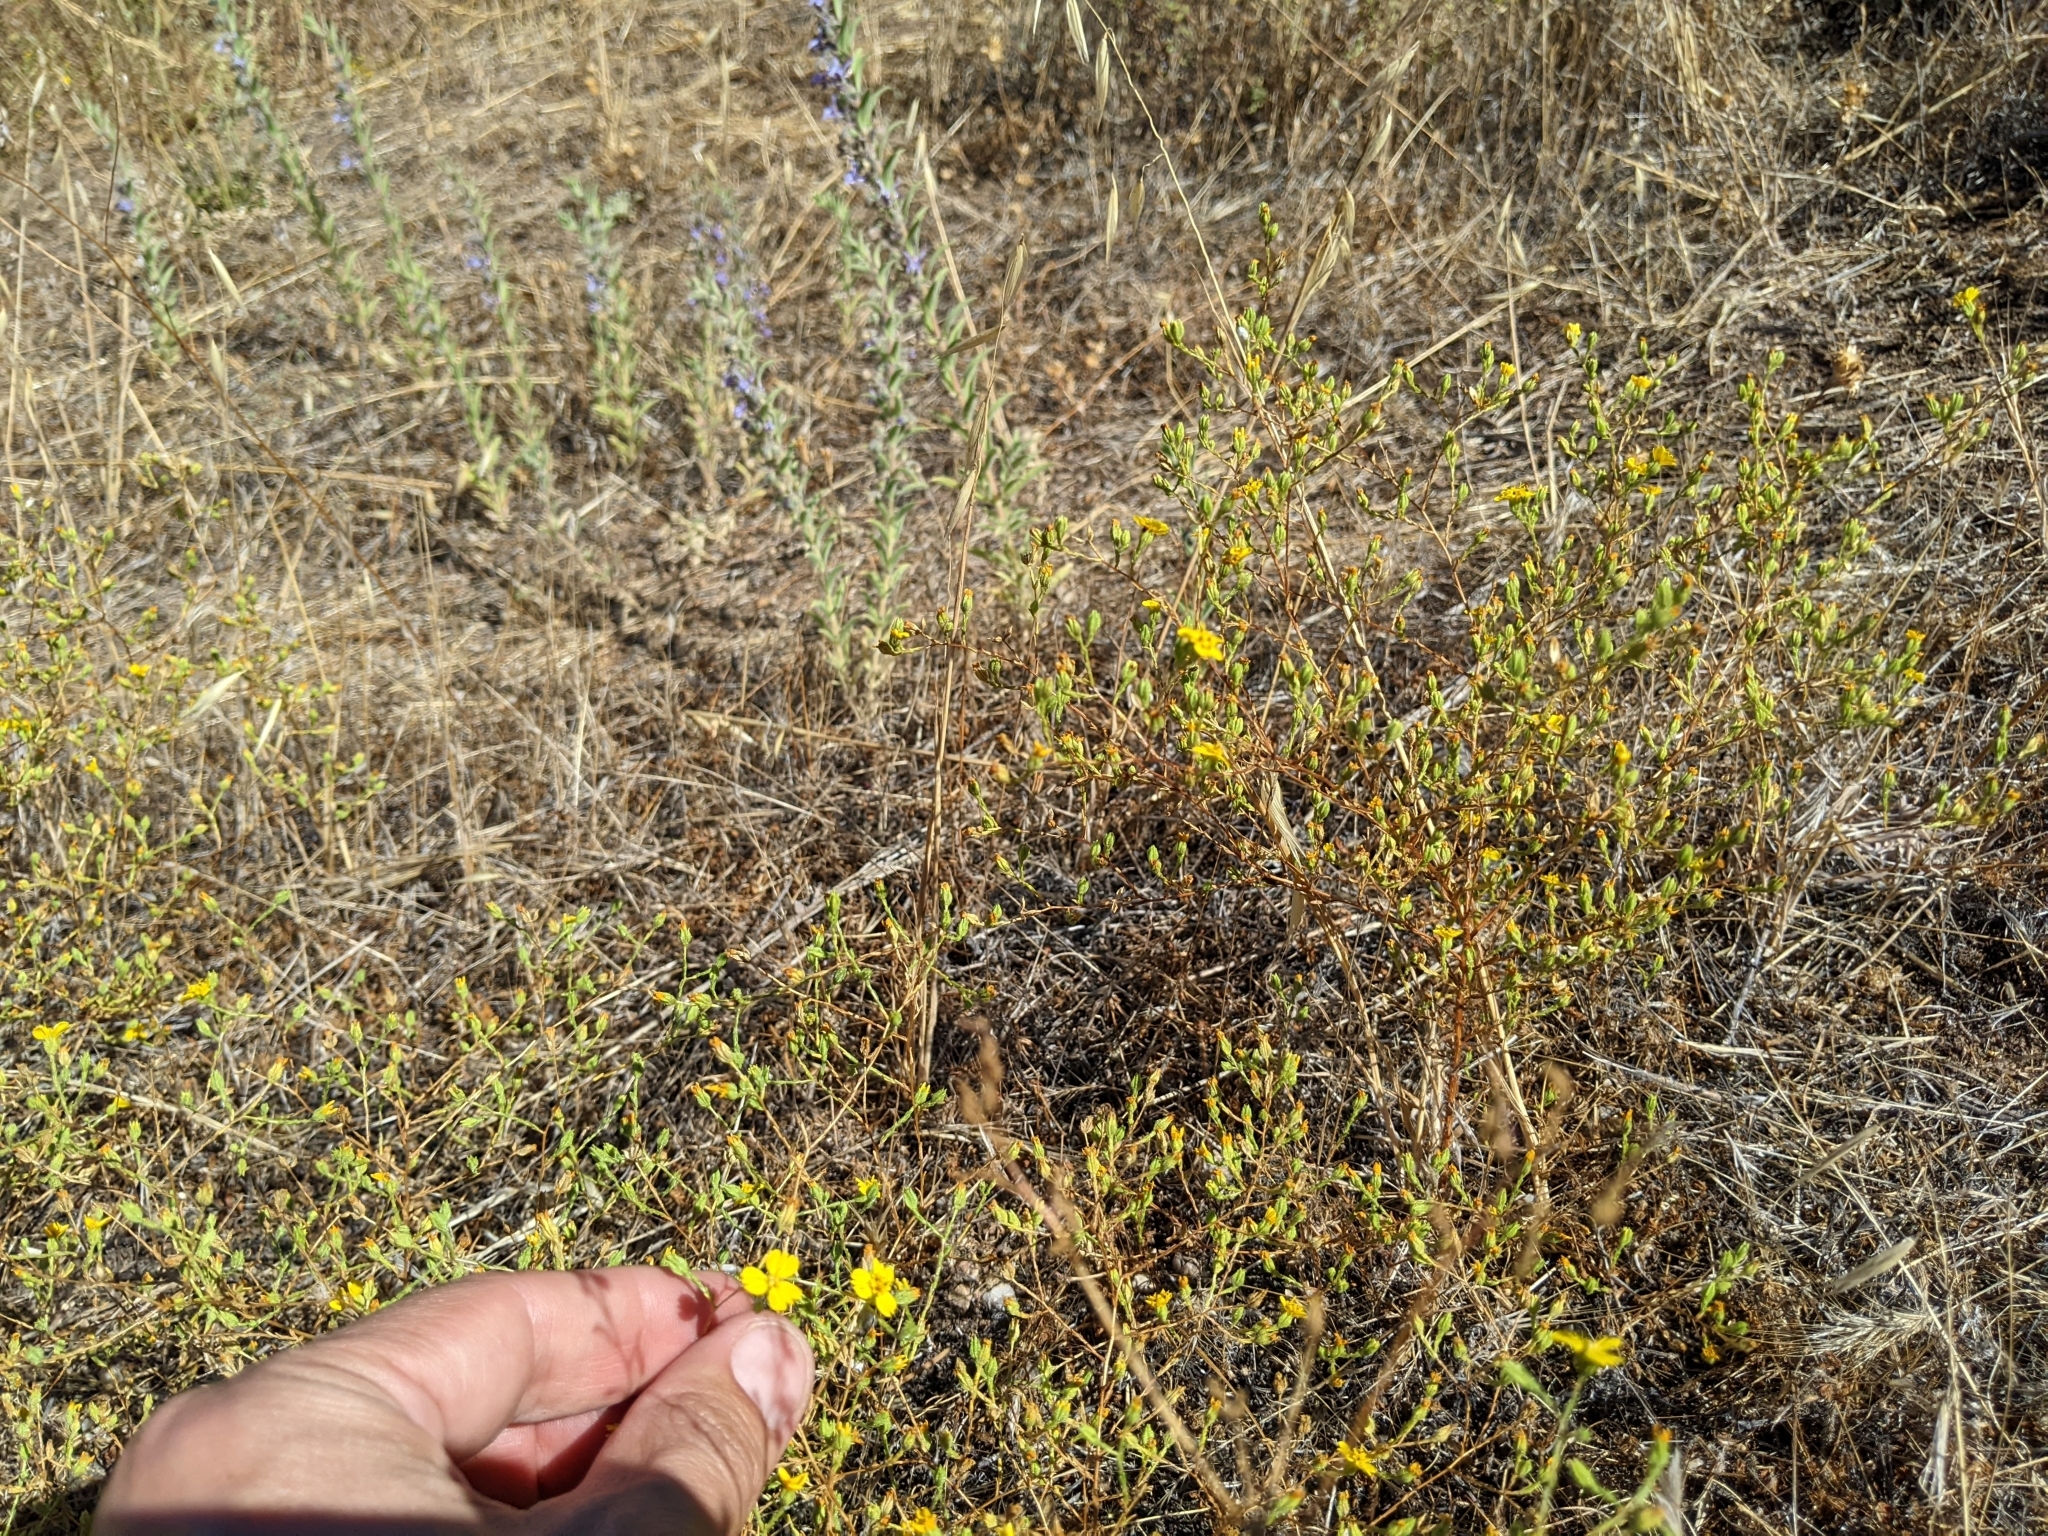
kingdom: Plantae
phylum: Tracheophyta
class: Magnoliopsida
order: Asterales
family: Asteraceae
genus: Deinandra
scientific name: Deinandra lobbii
